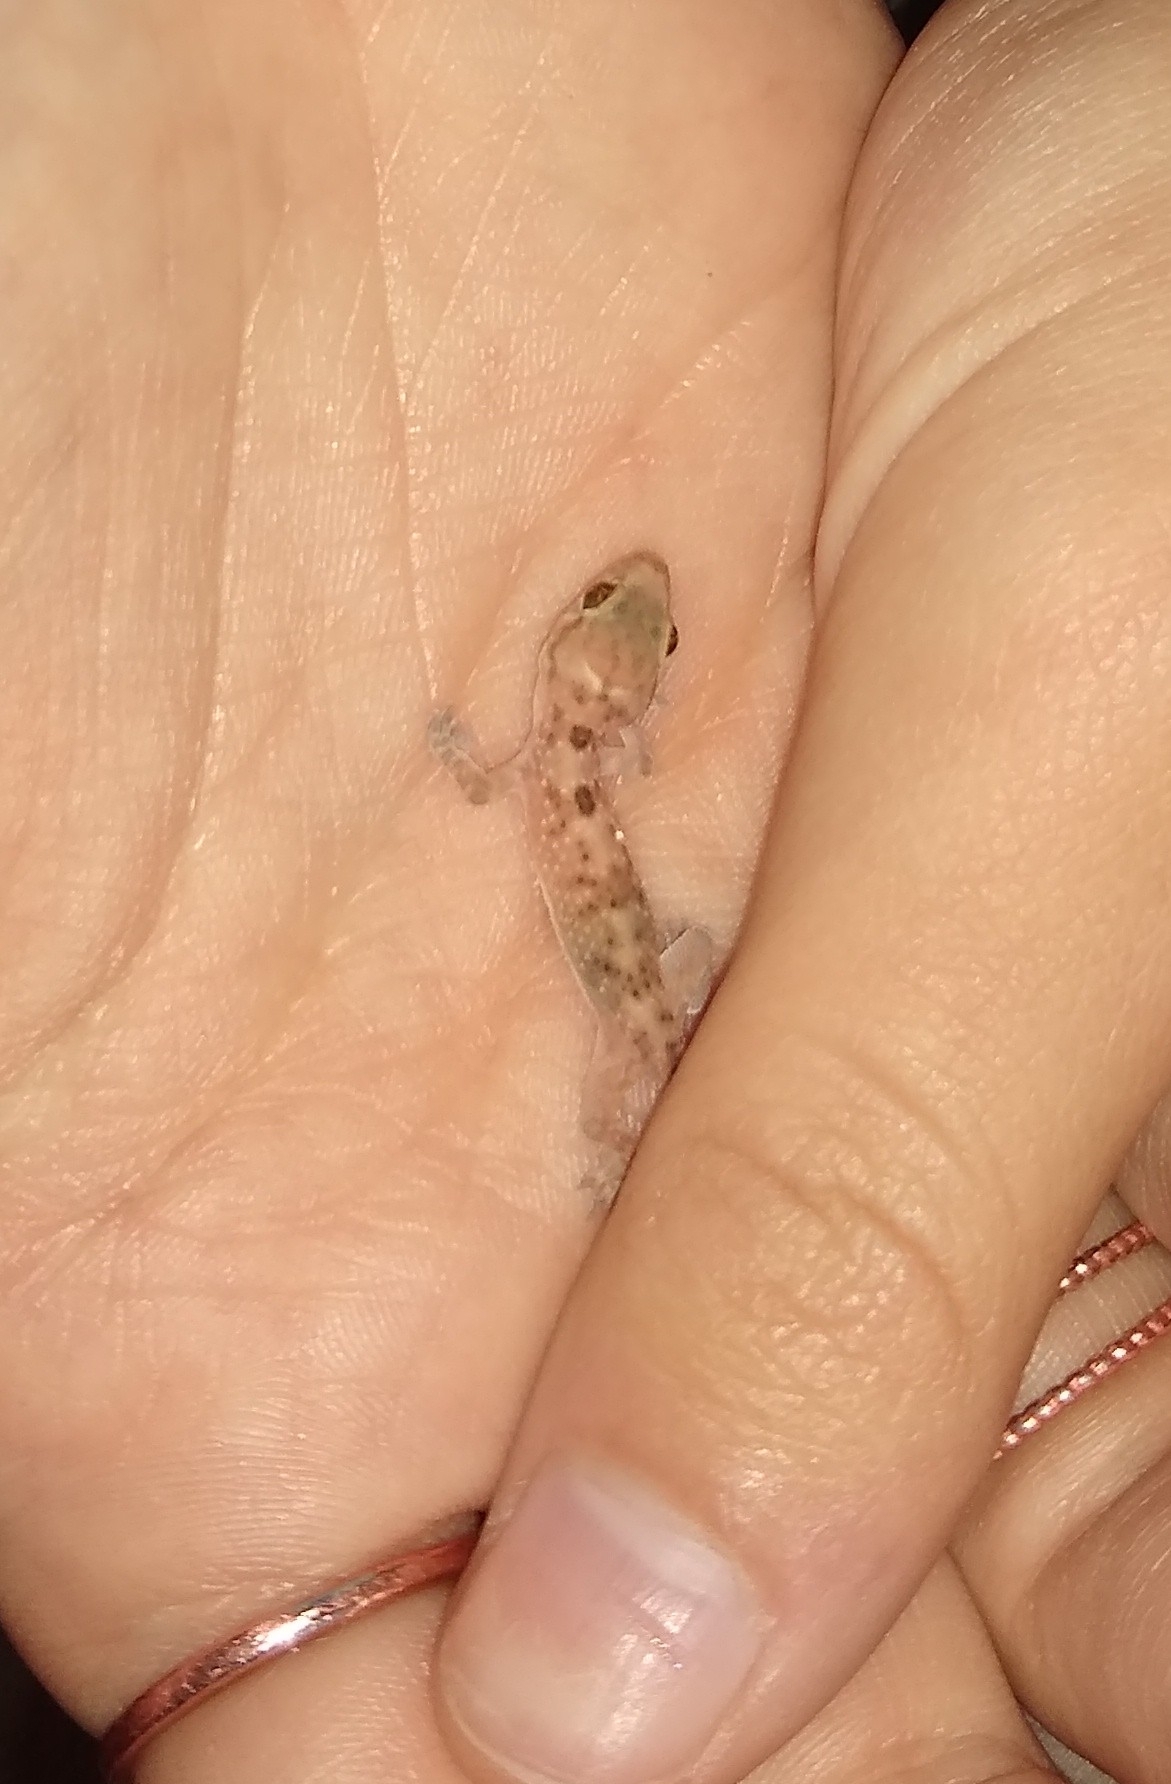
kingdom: Animalia
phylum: Chordata
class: Squamata
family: Gekkonidae
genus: Hemidactylus
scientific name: Hemidactylus turcicus
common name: Turkish gecko
